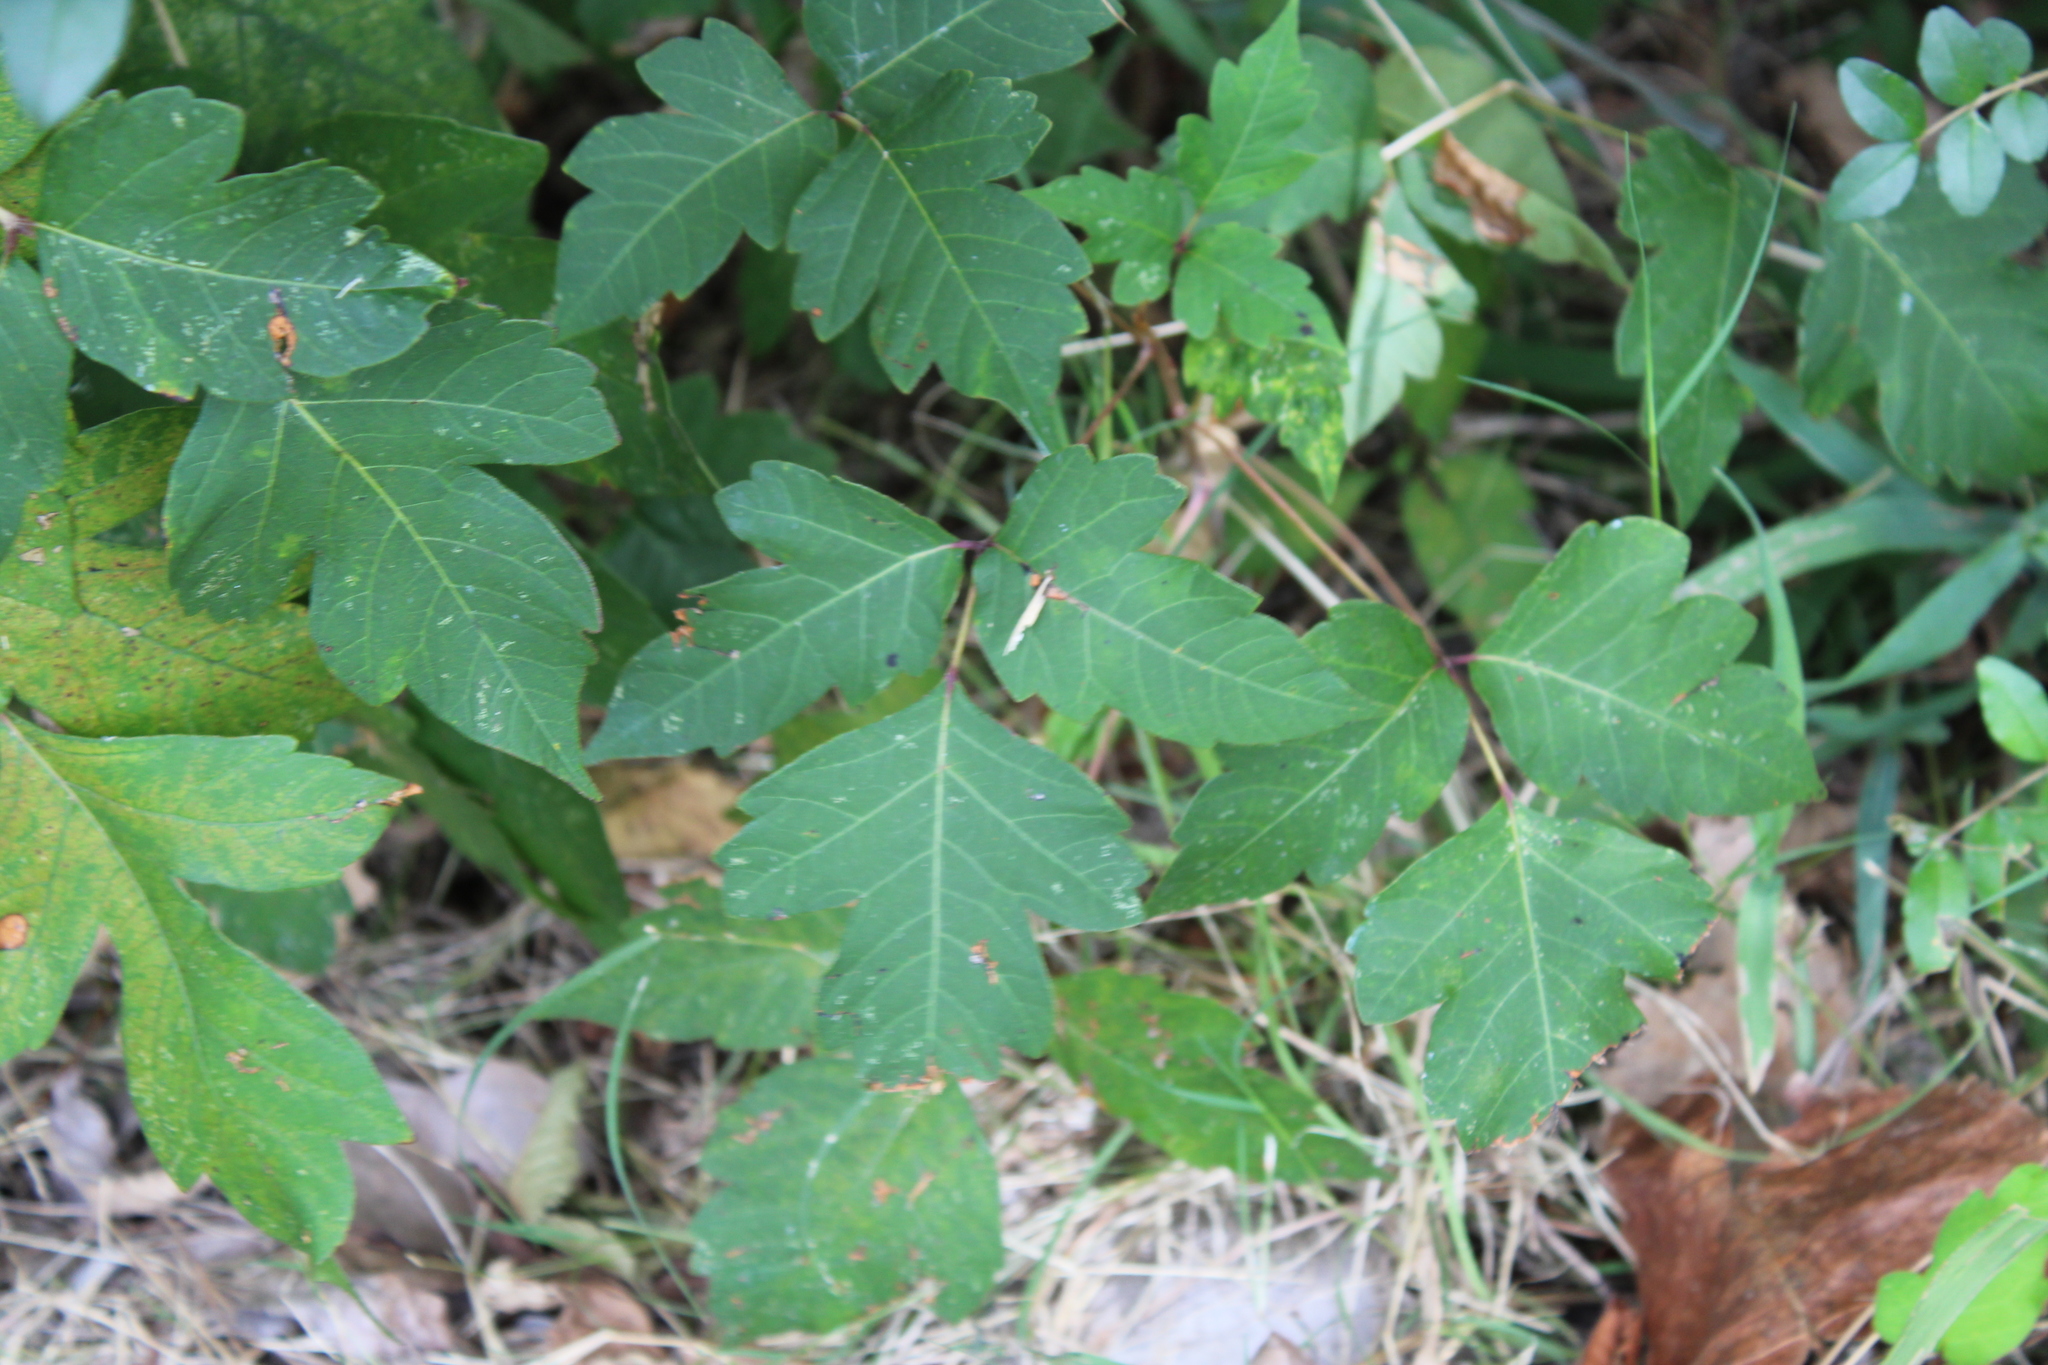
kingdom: Plantae
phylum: Tracheophyta
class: Magnoliopsida
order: Sapindales
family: Anacardiaceae
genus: Toxicodendron
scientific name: Toxicodendron radicans
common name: Poison ivy
